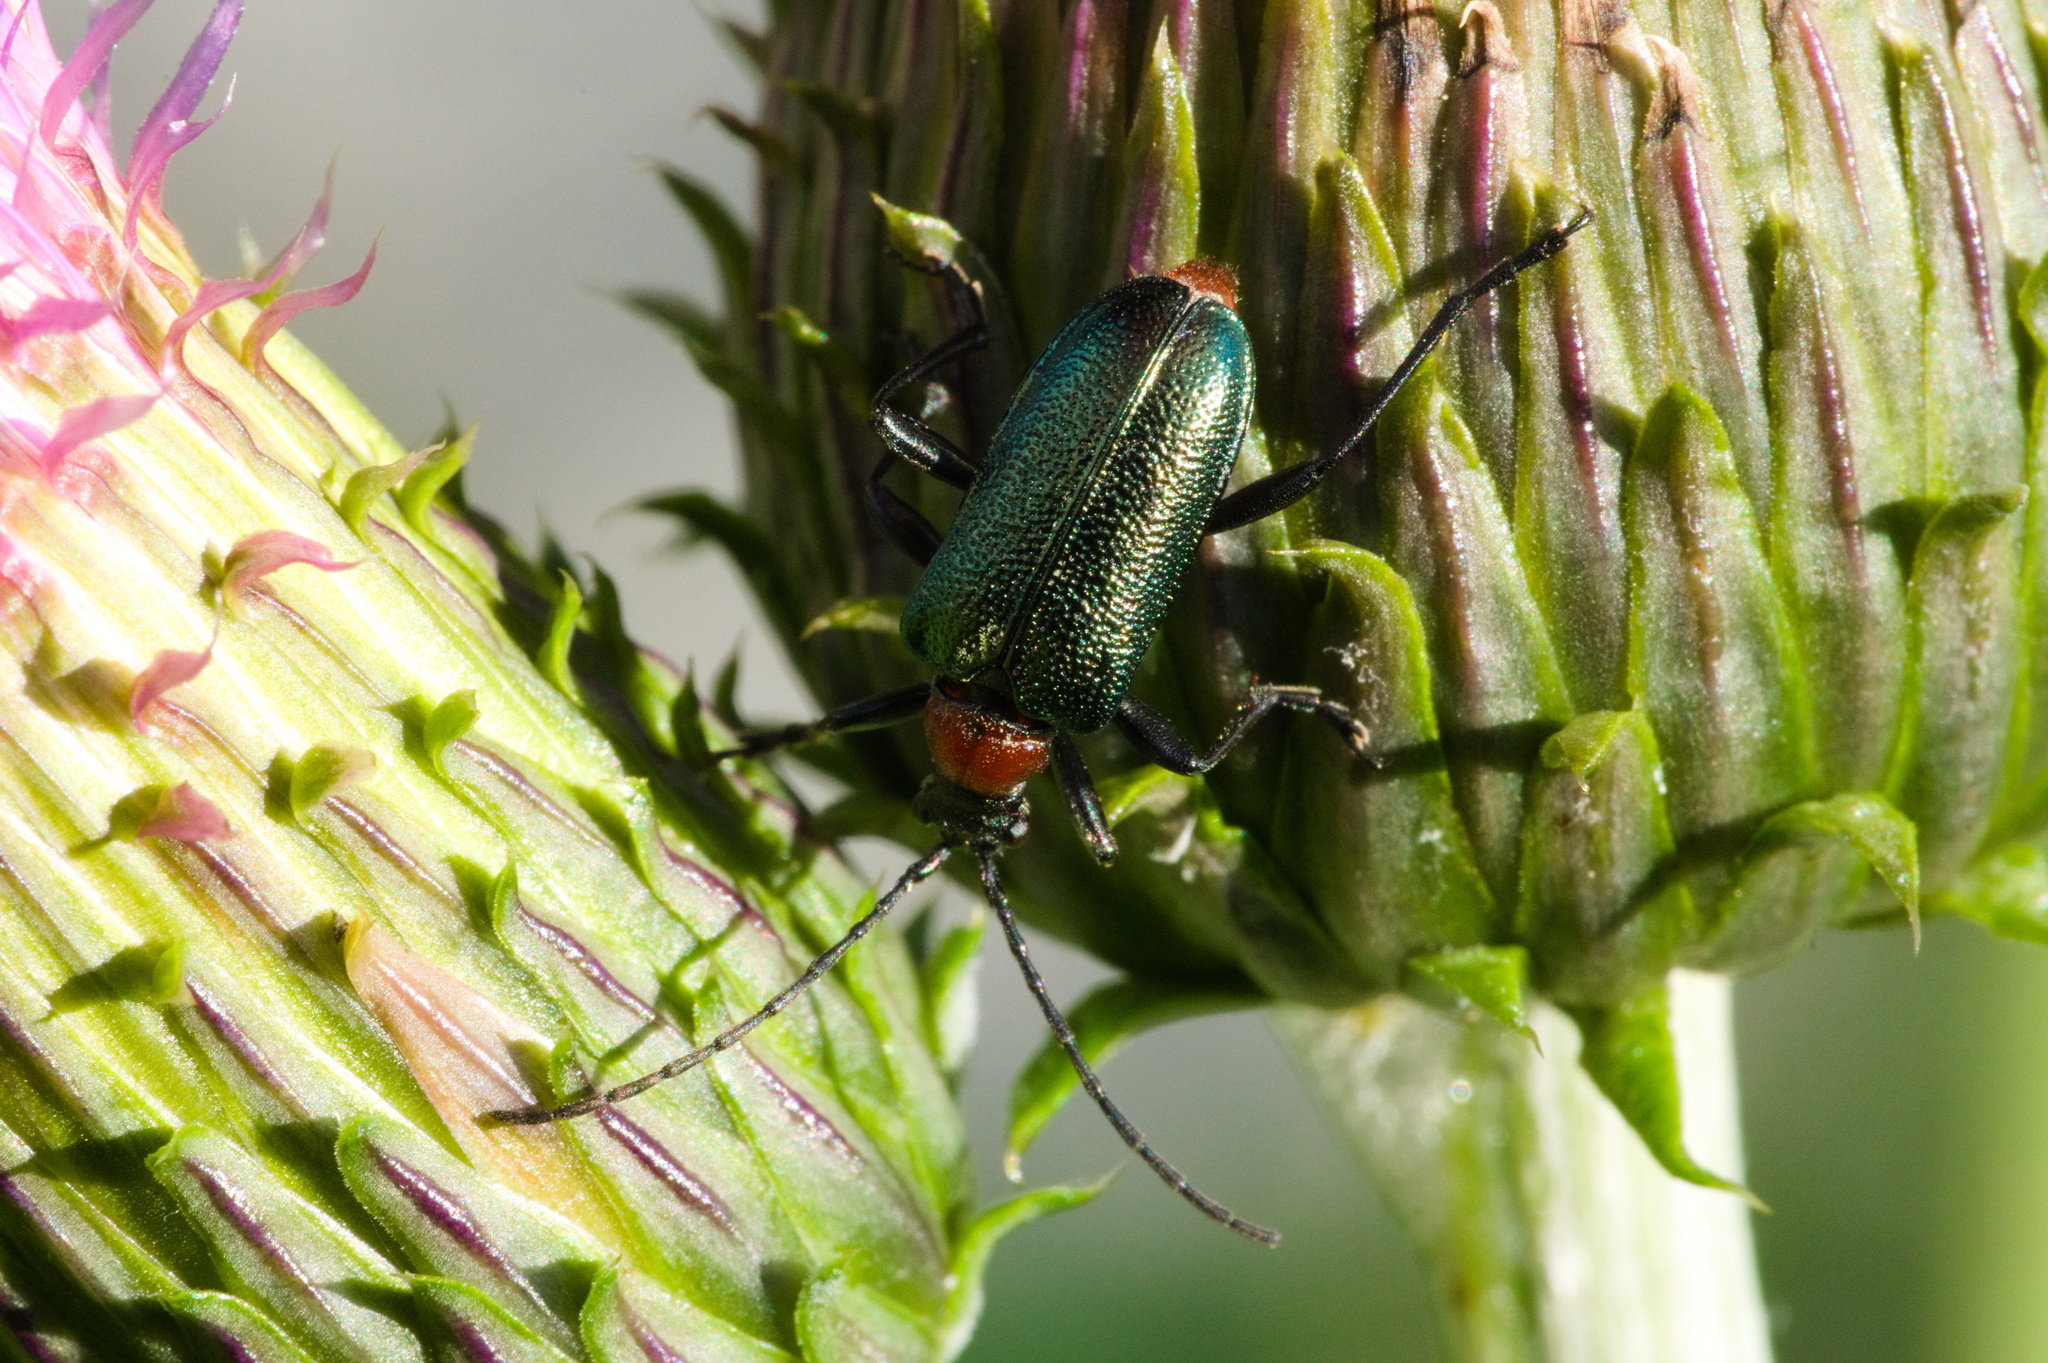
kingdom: Animalia
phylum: Arthropoda
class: Insecta
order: Coleoptera
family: Cerambycidae
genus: Gaurotes
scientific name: Gaurotes virginea
